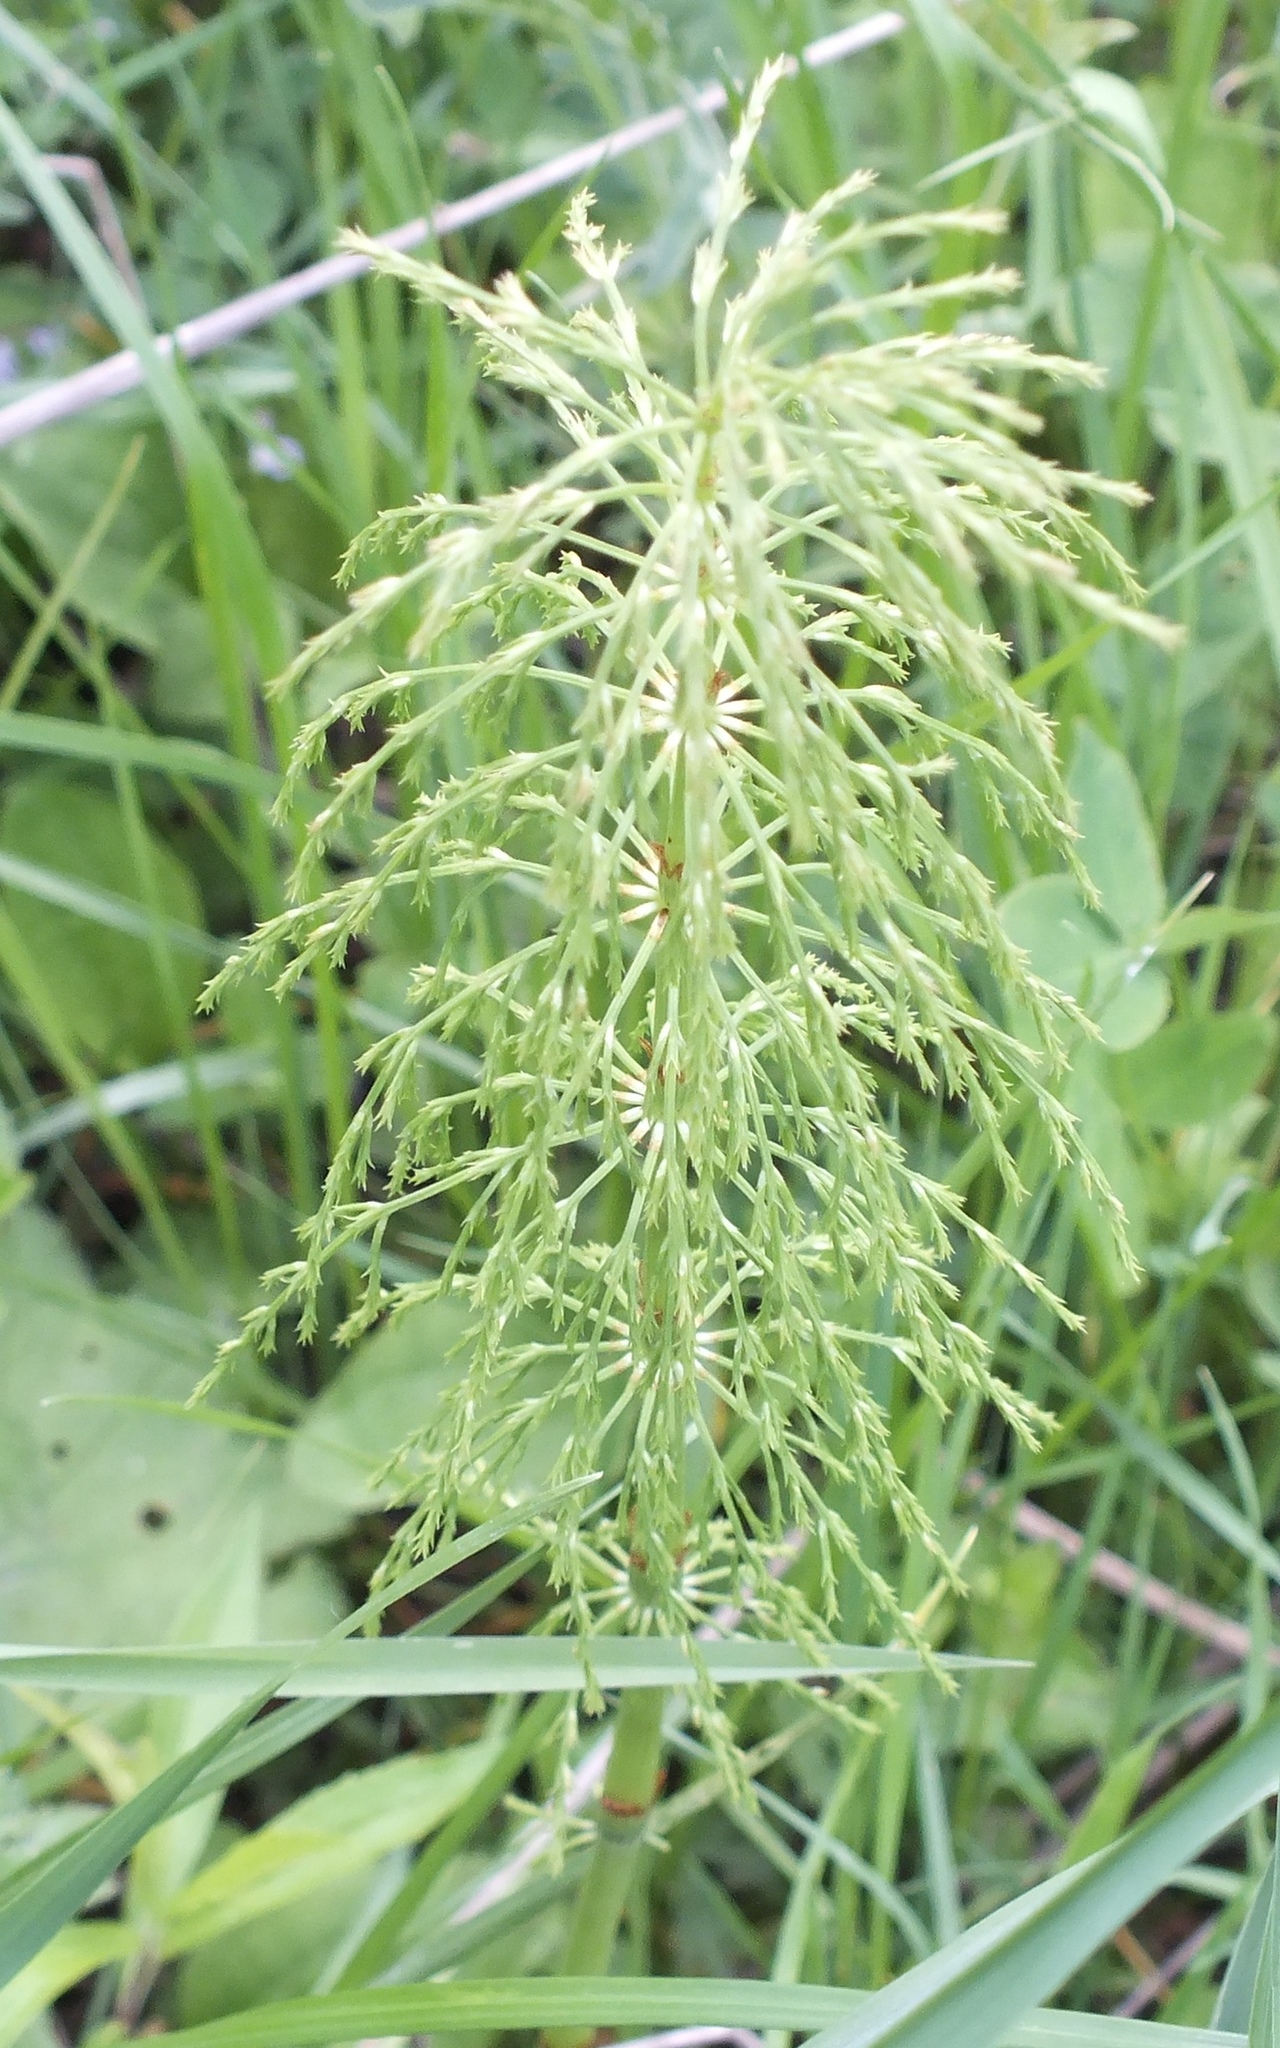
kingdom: Plantae
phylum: Tracheophyta
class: Polypodiopsida
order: Equisetales
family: Equisetaceae
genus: Equisetum
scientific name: Equisetum sylvaticum
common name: Wood horsetail
